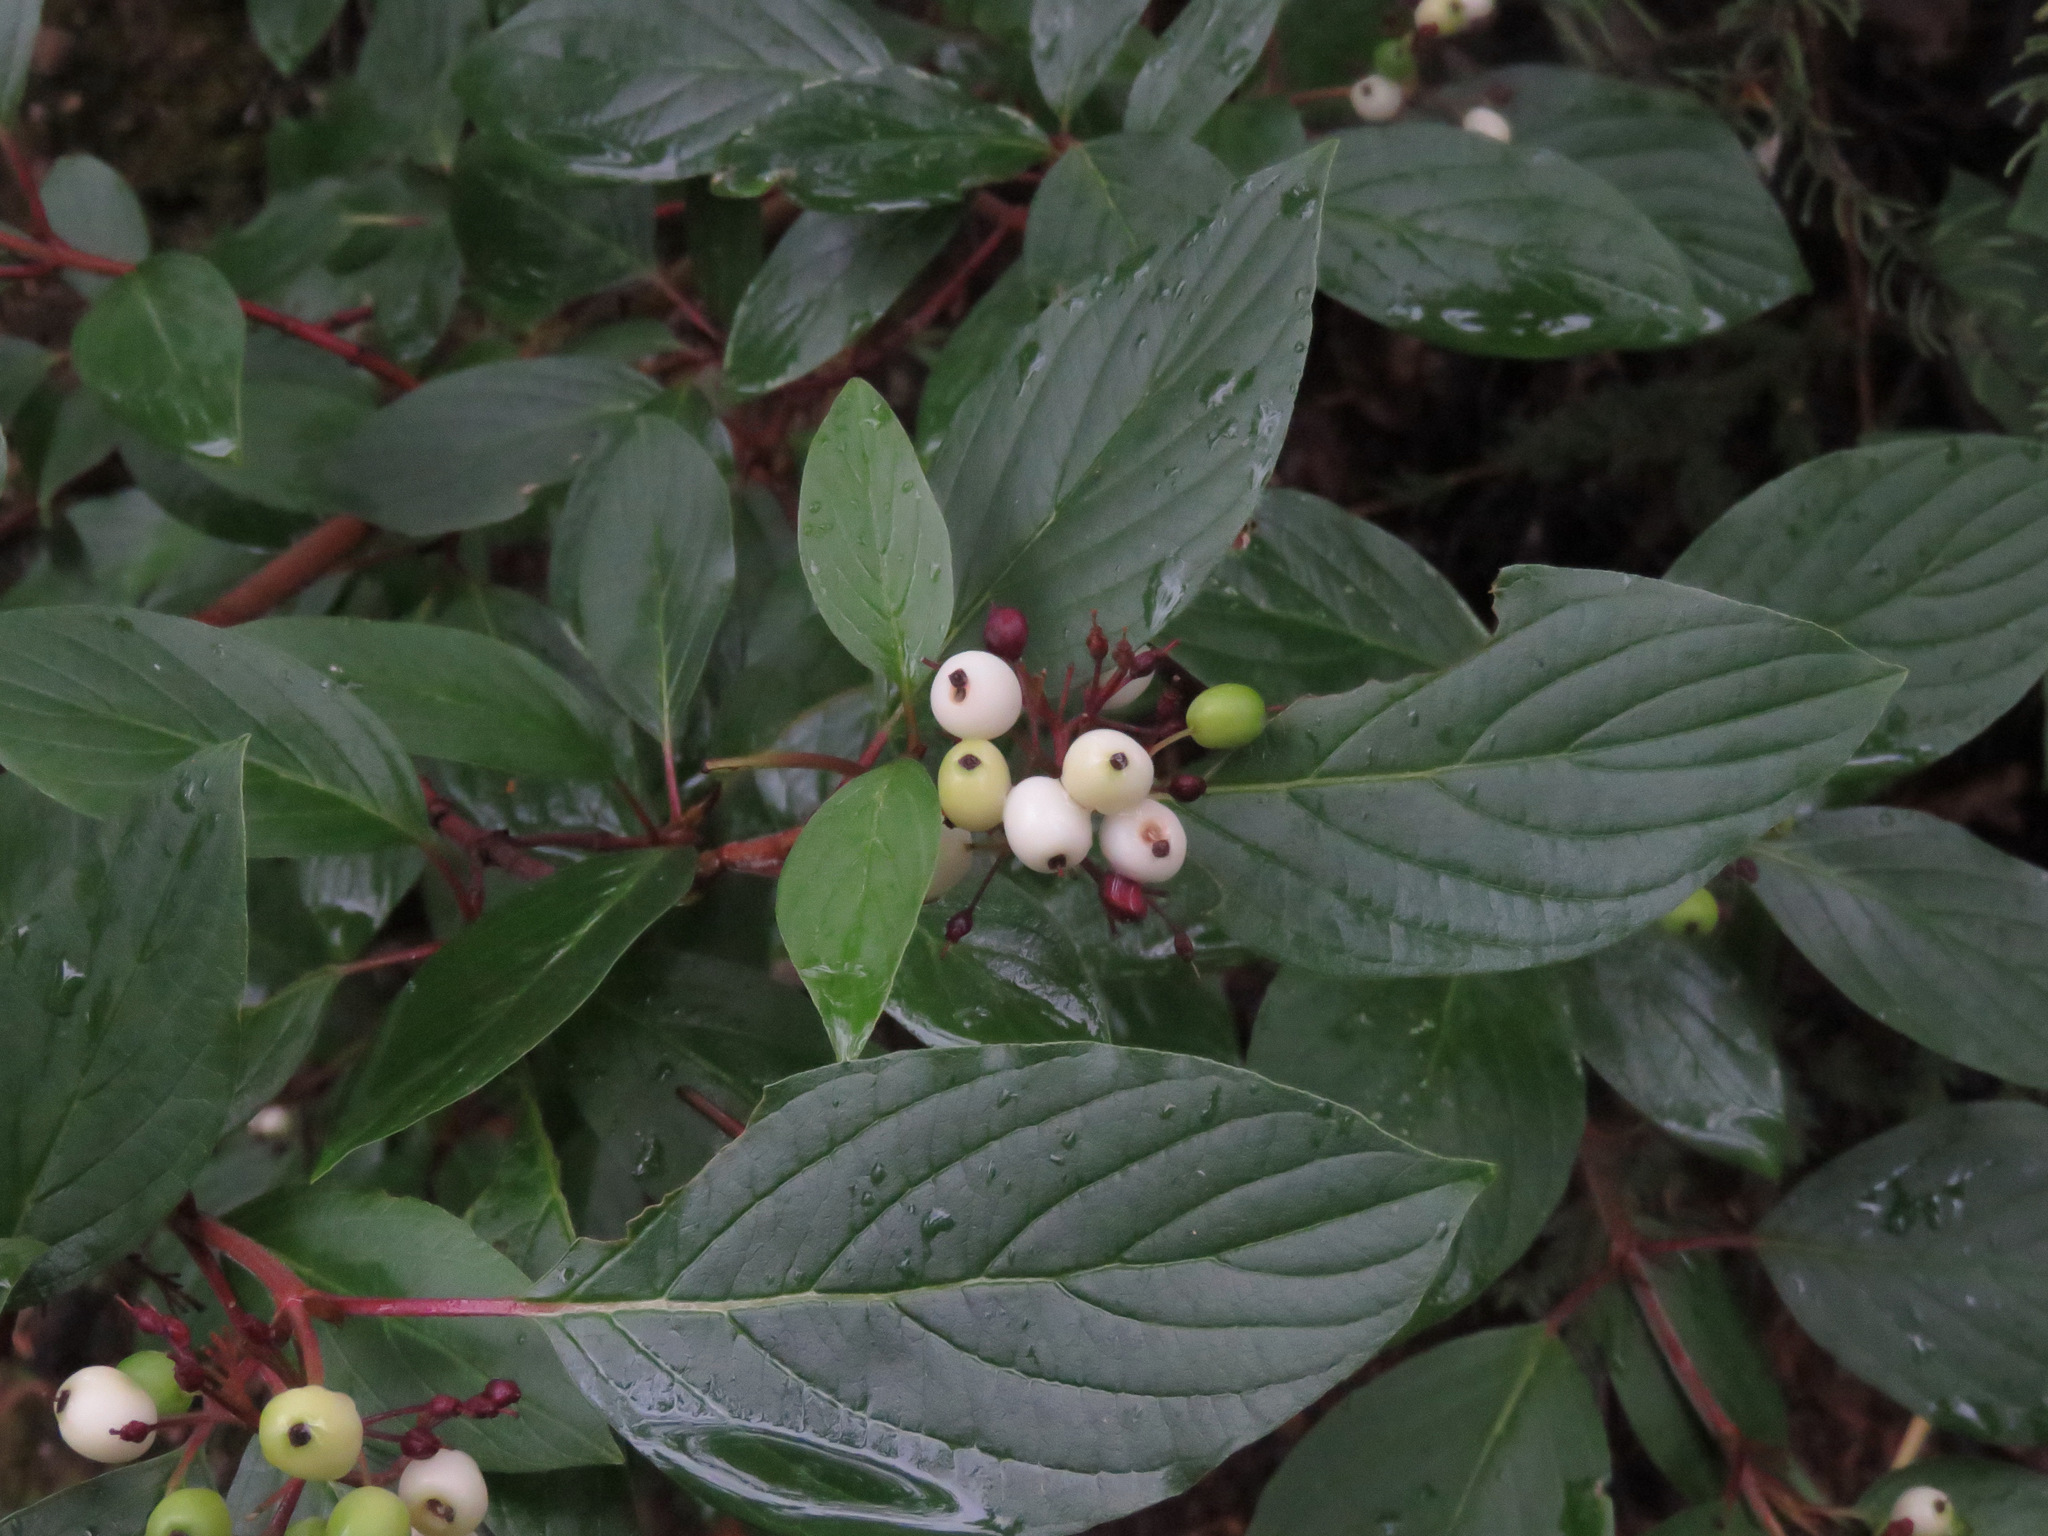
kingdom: Plantae
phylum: Tracheophyta
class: Magnoliopsida
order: Cornales
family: Cornaceae
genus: Cornus
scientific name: Cornus sericea
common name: Red-osier dogwood
